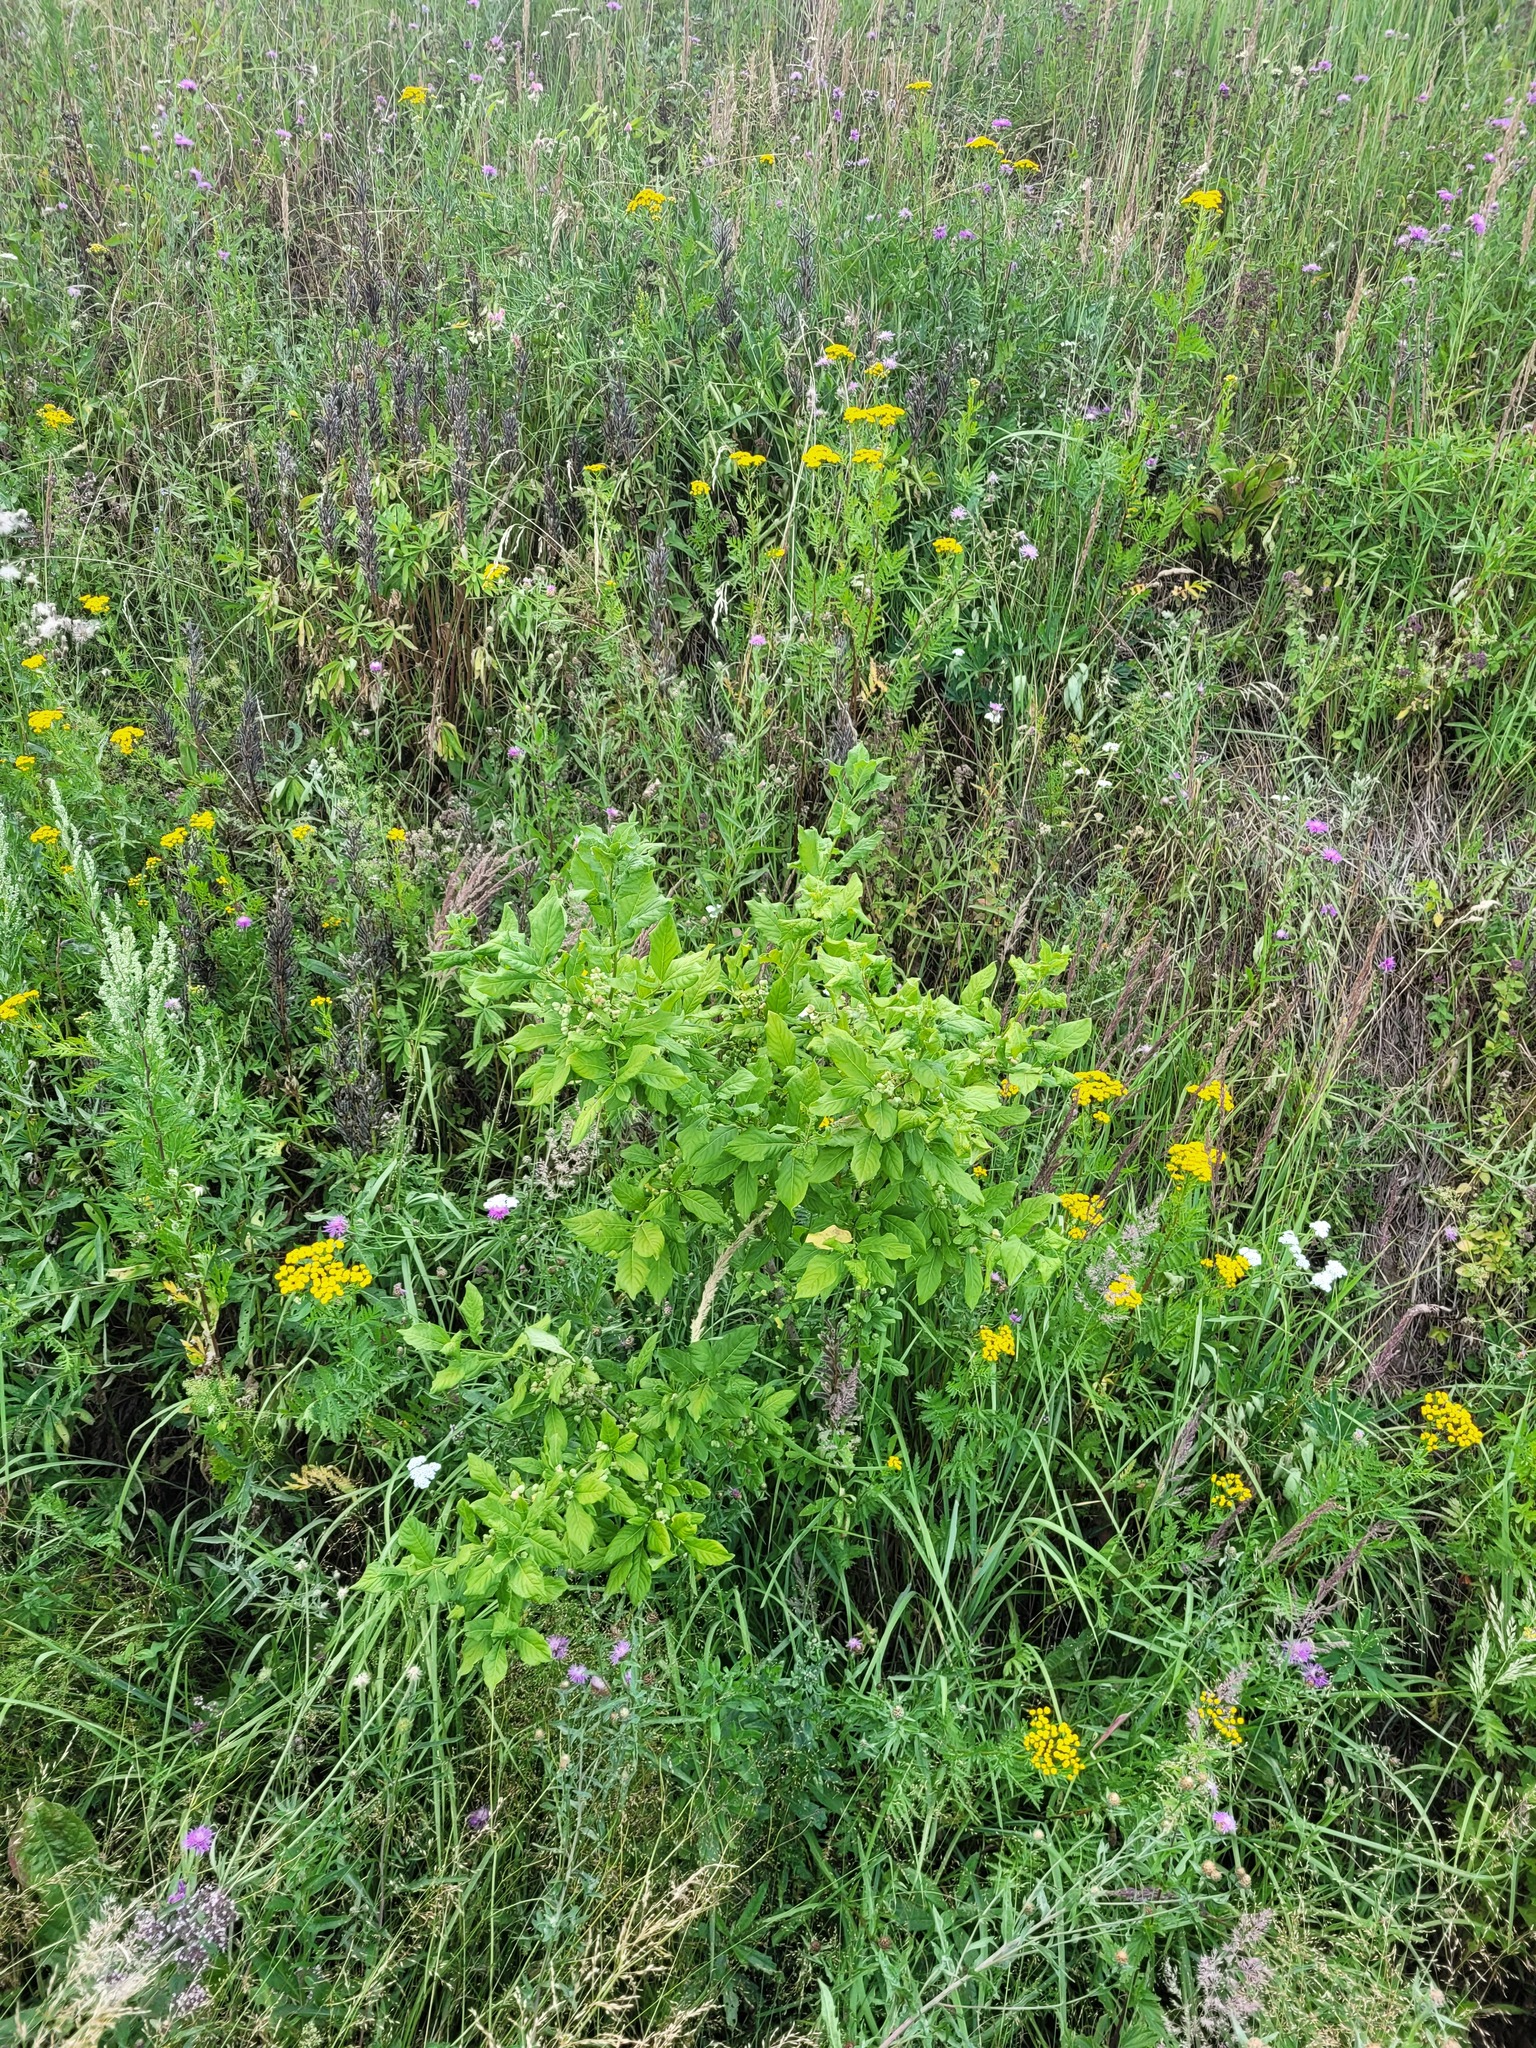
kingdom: Plantae
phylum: Tracheophyta
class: Magnoliopsida
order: Celastrales
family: Celastraceae
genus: Euonymus
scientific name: Euonymus europaeus
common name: Spindle
